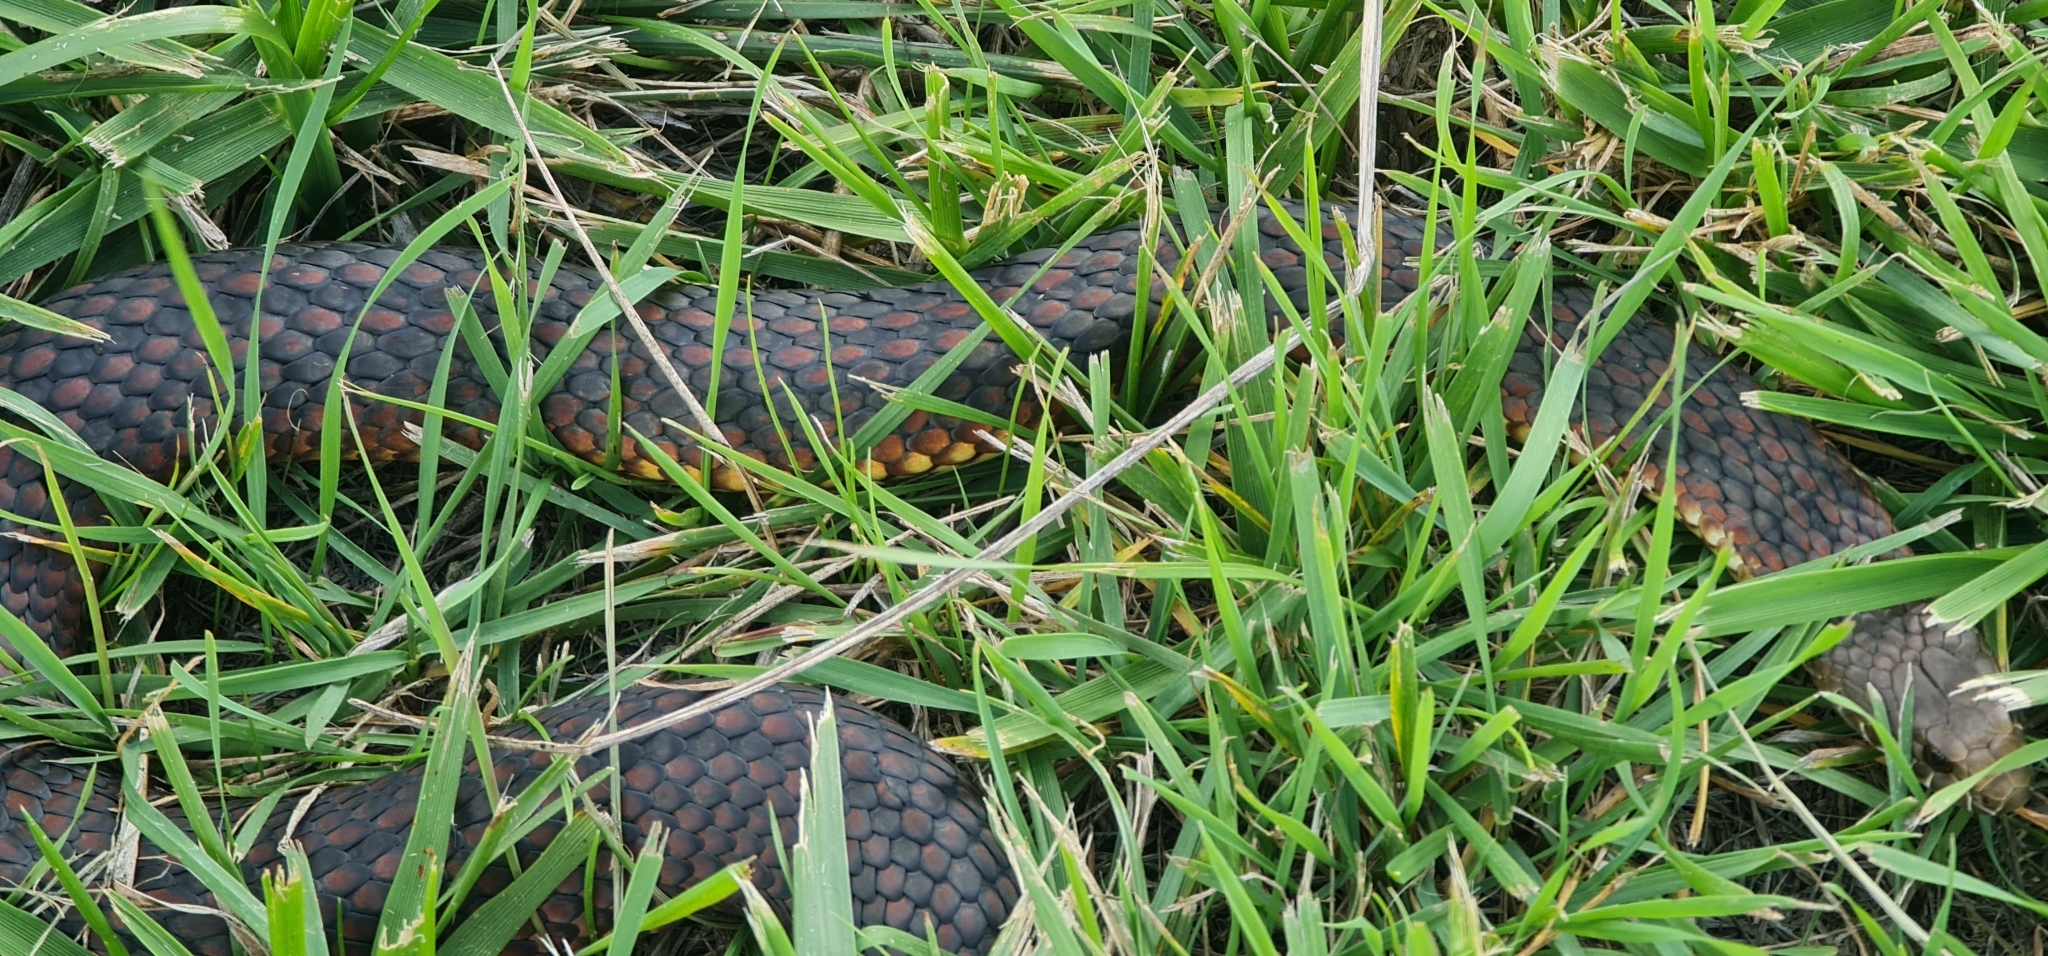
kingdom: Animalia
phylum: Chordata
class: Squamata
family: Elapidae
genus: Austrelaps
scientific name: Austrelaps ramsayi
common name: Highlands copperhead
